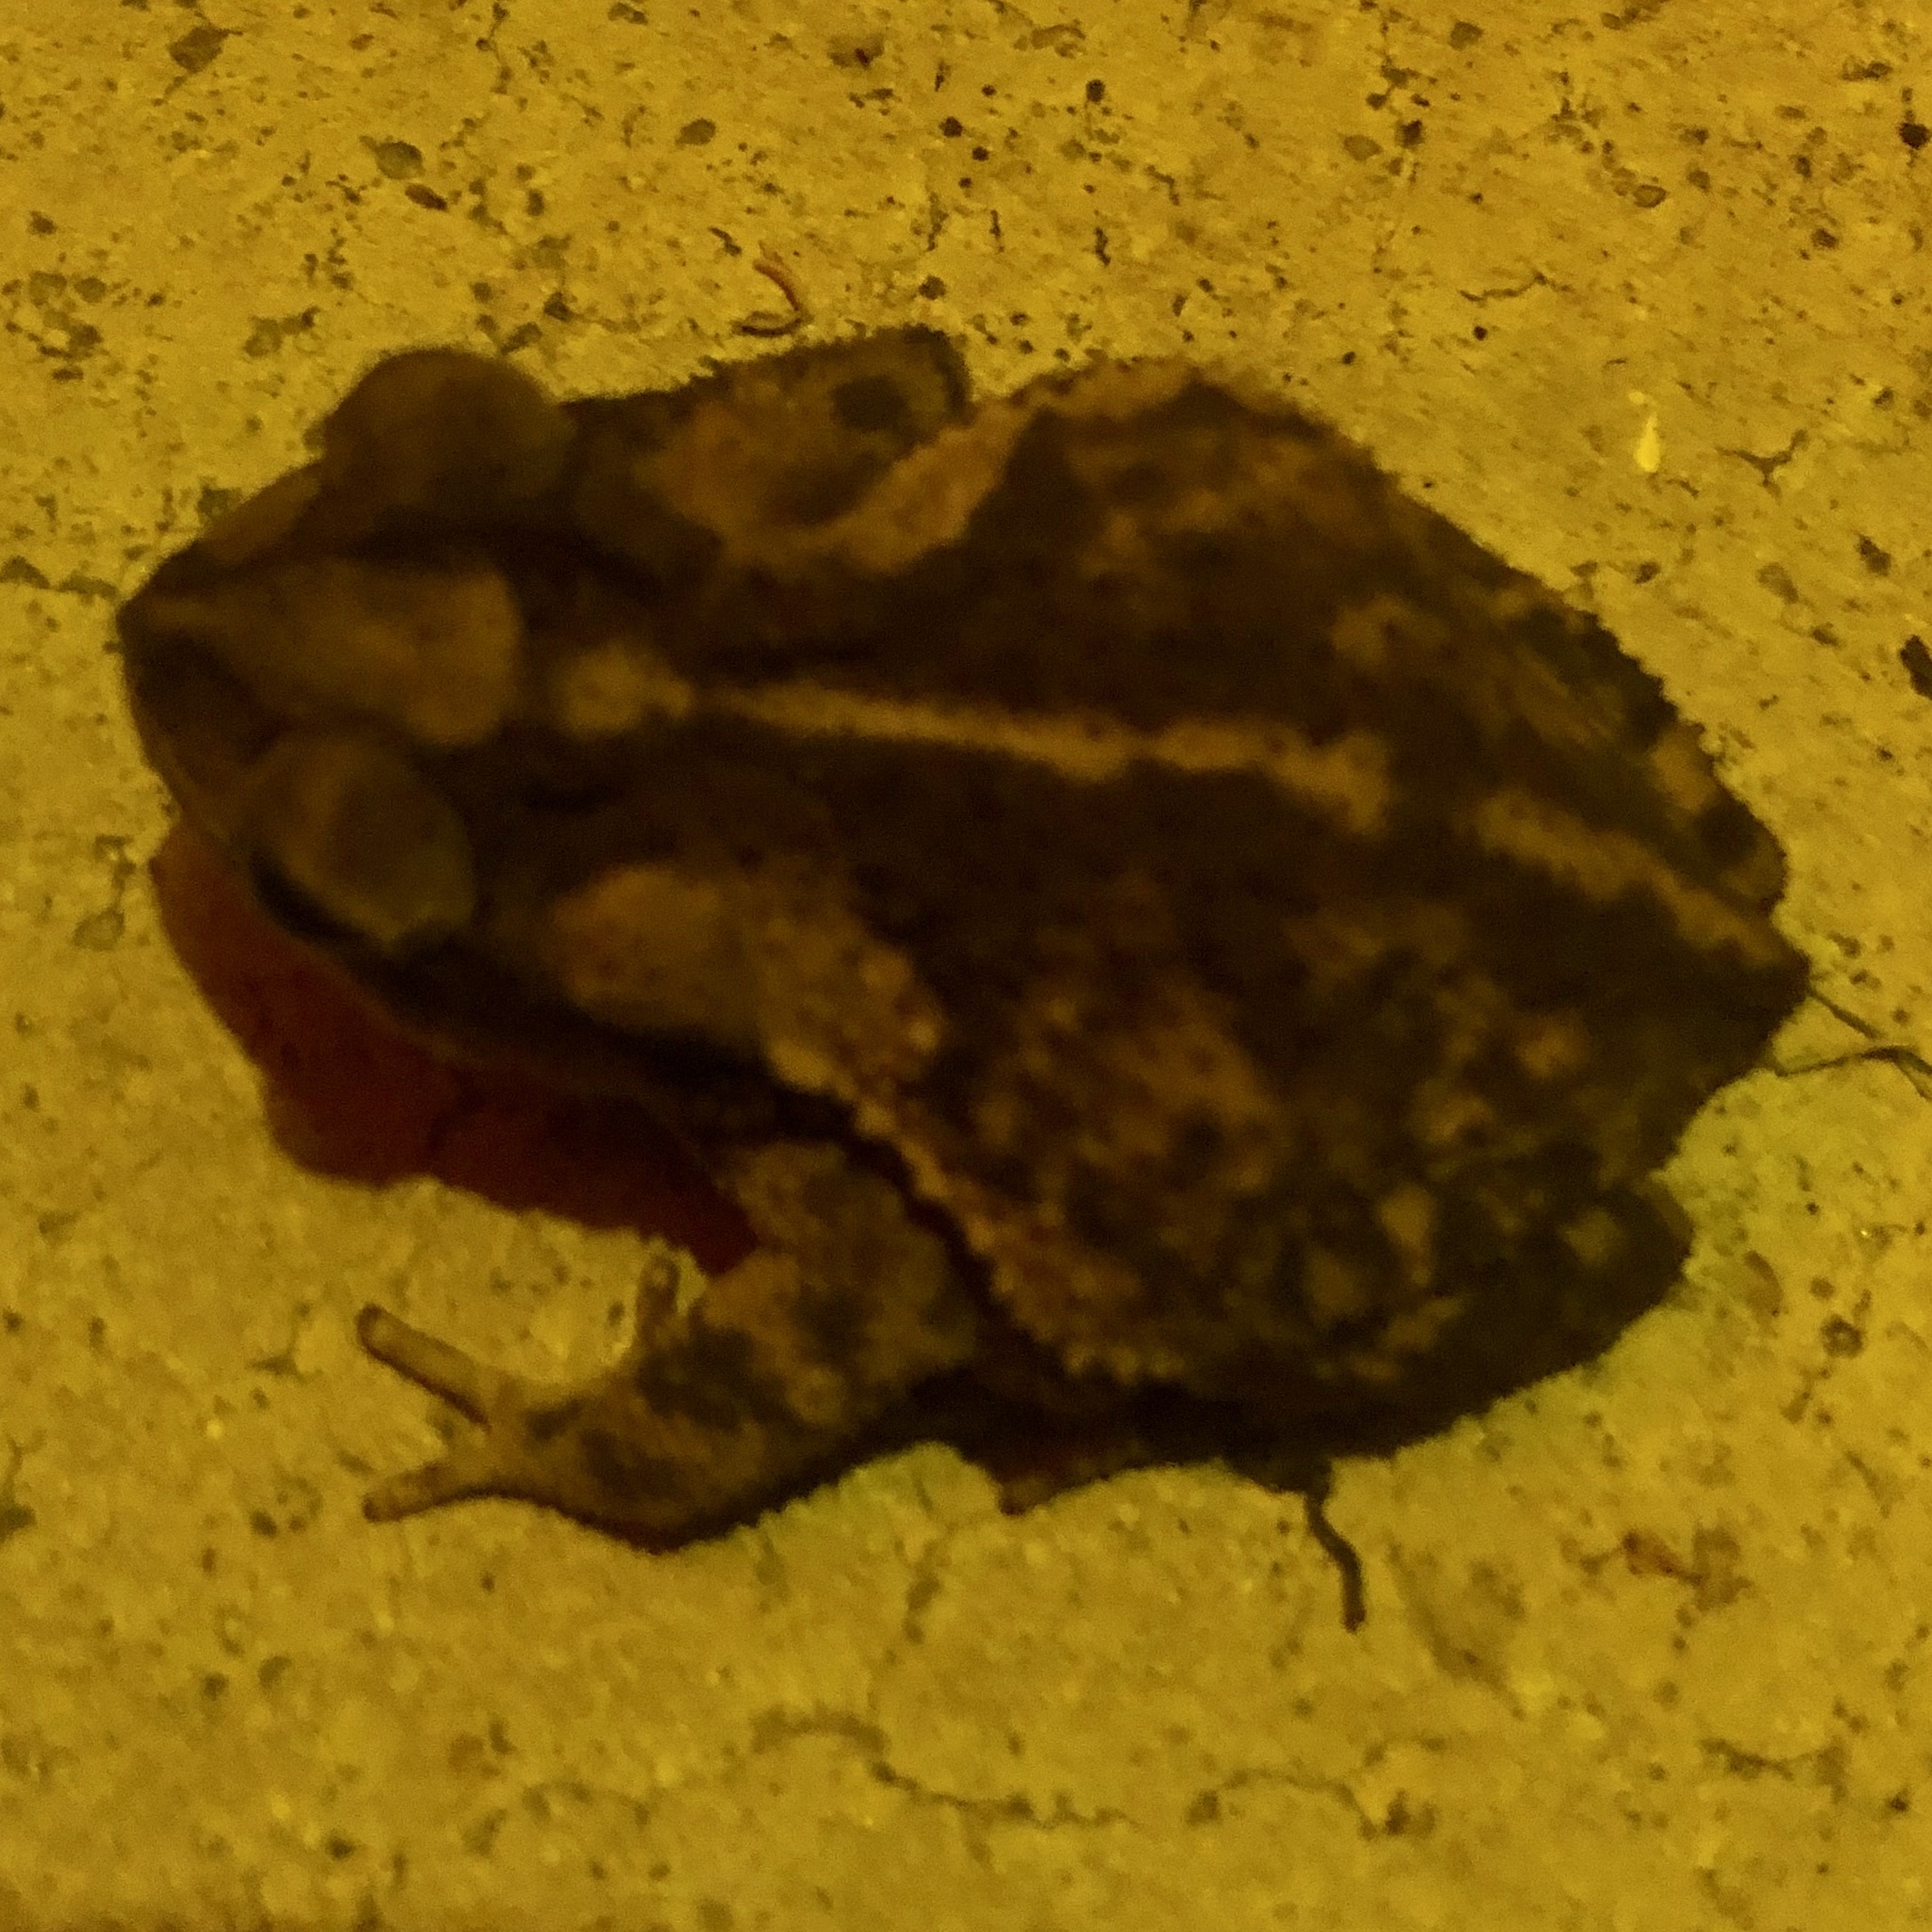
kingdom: Animalia
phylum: Chordata
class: Amphibia
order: Anura
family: Bufonidae
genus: Incilius
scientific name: Incilius nebulifer
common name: Gulf coast toad
